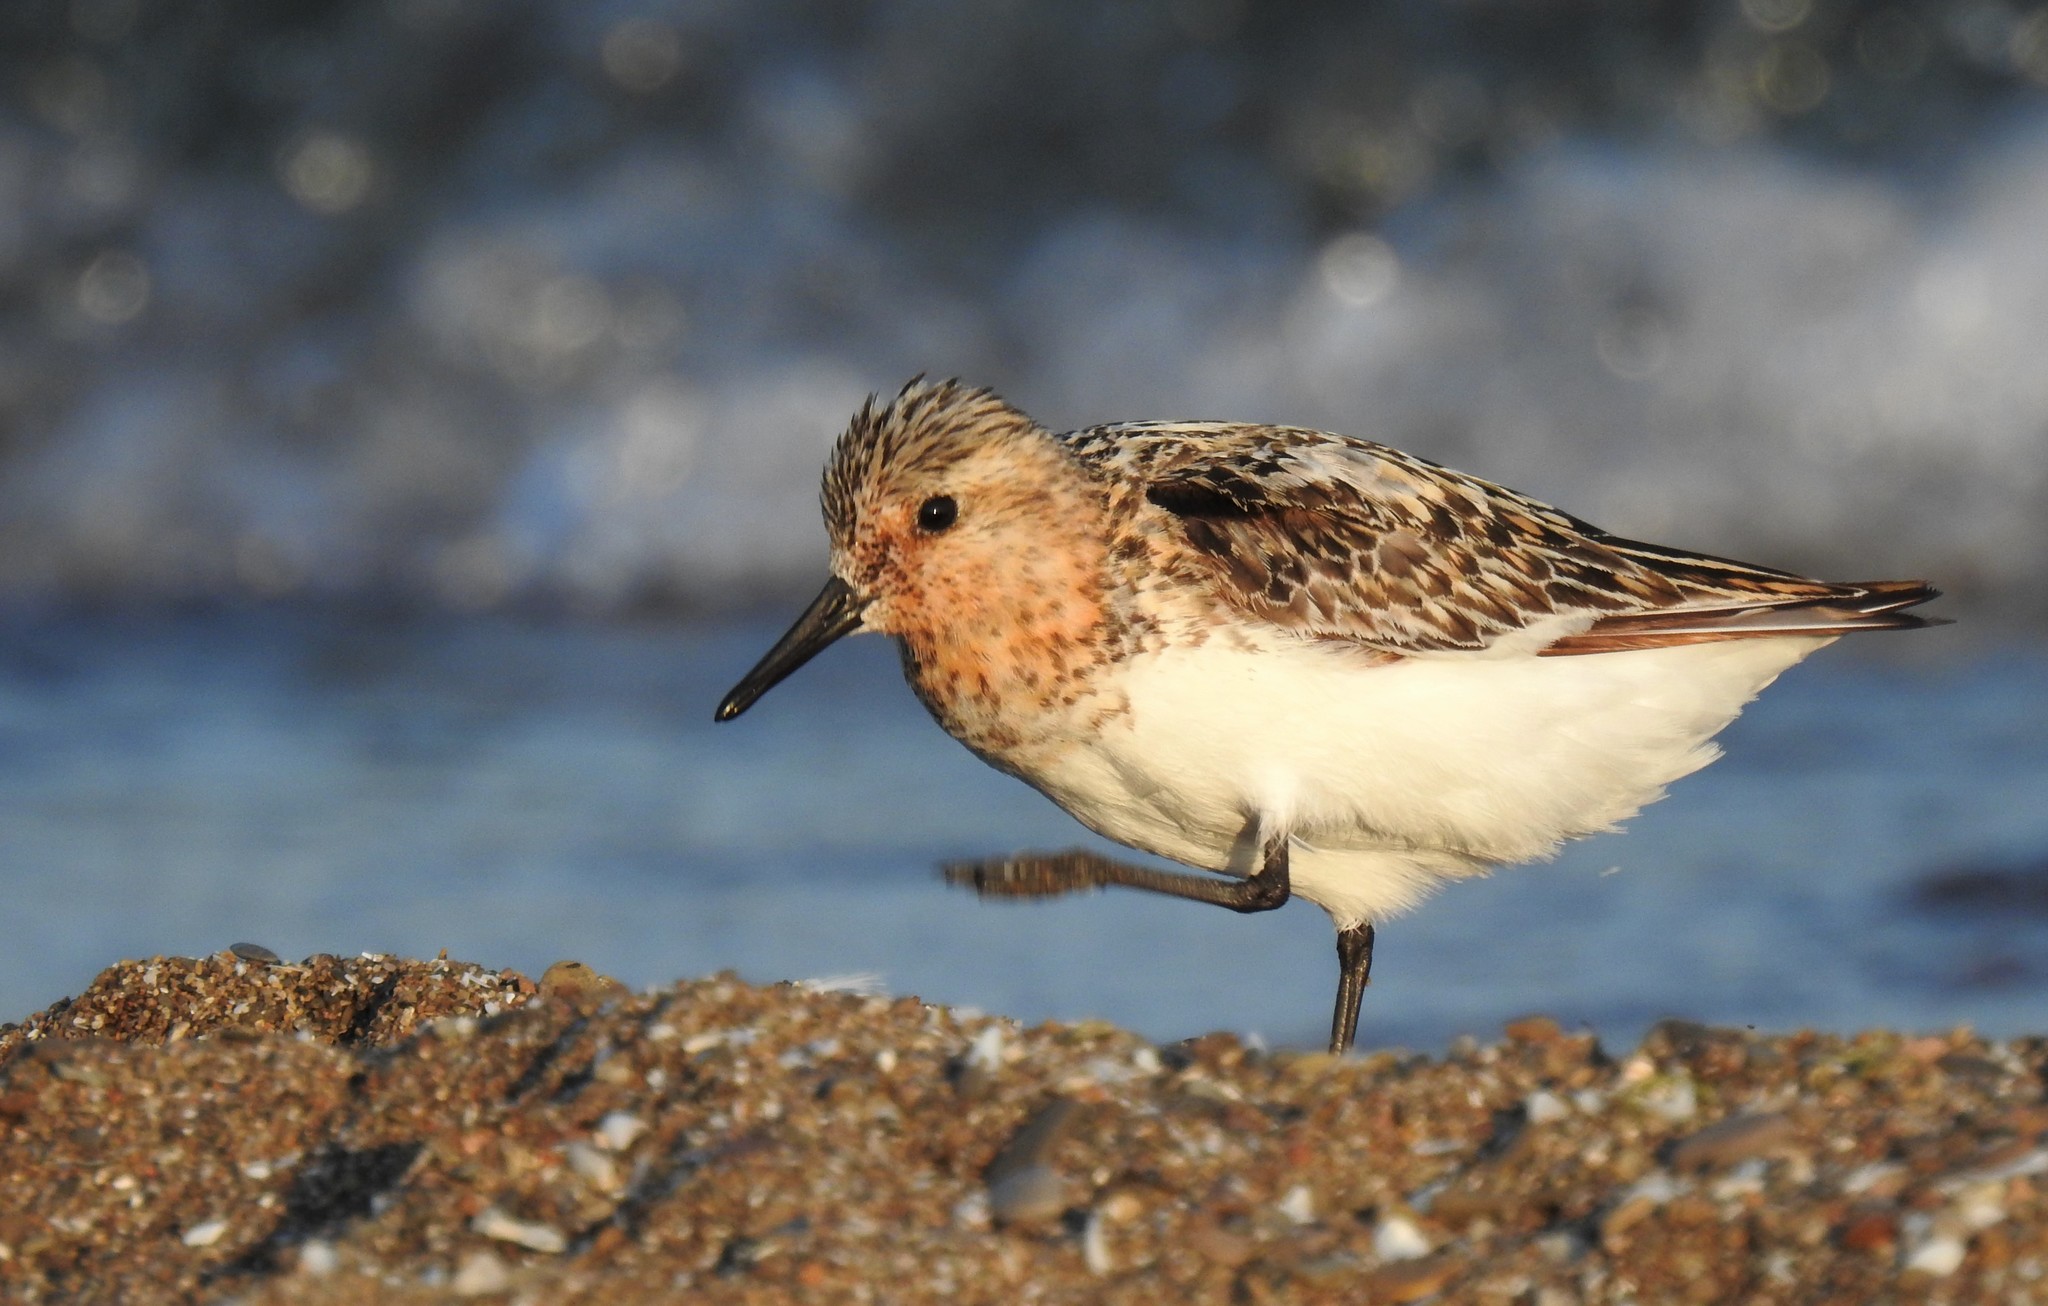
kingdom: Animalia
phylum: Chordata
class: Aves
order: Charadriiformes
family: Scolopacidae
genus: Calidris
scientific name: Calidris alba
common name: Sanderling
